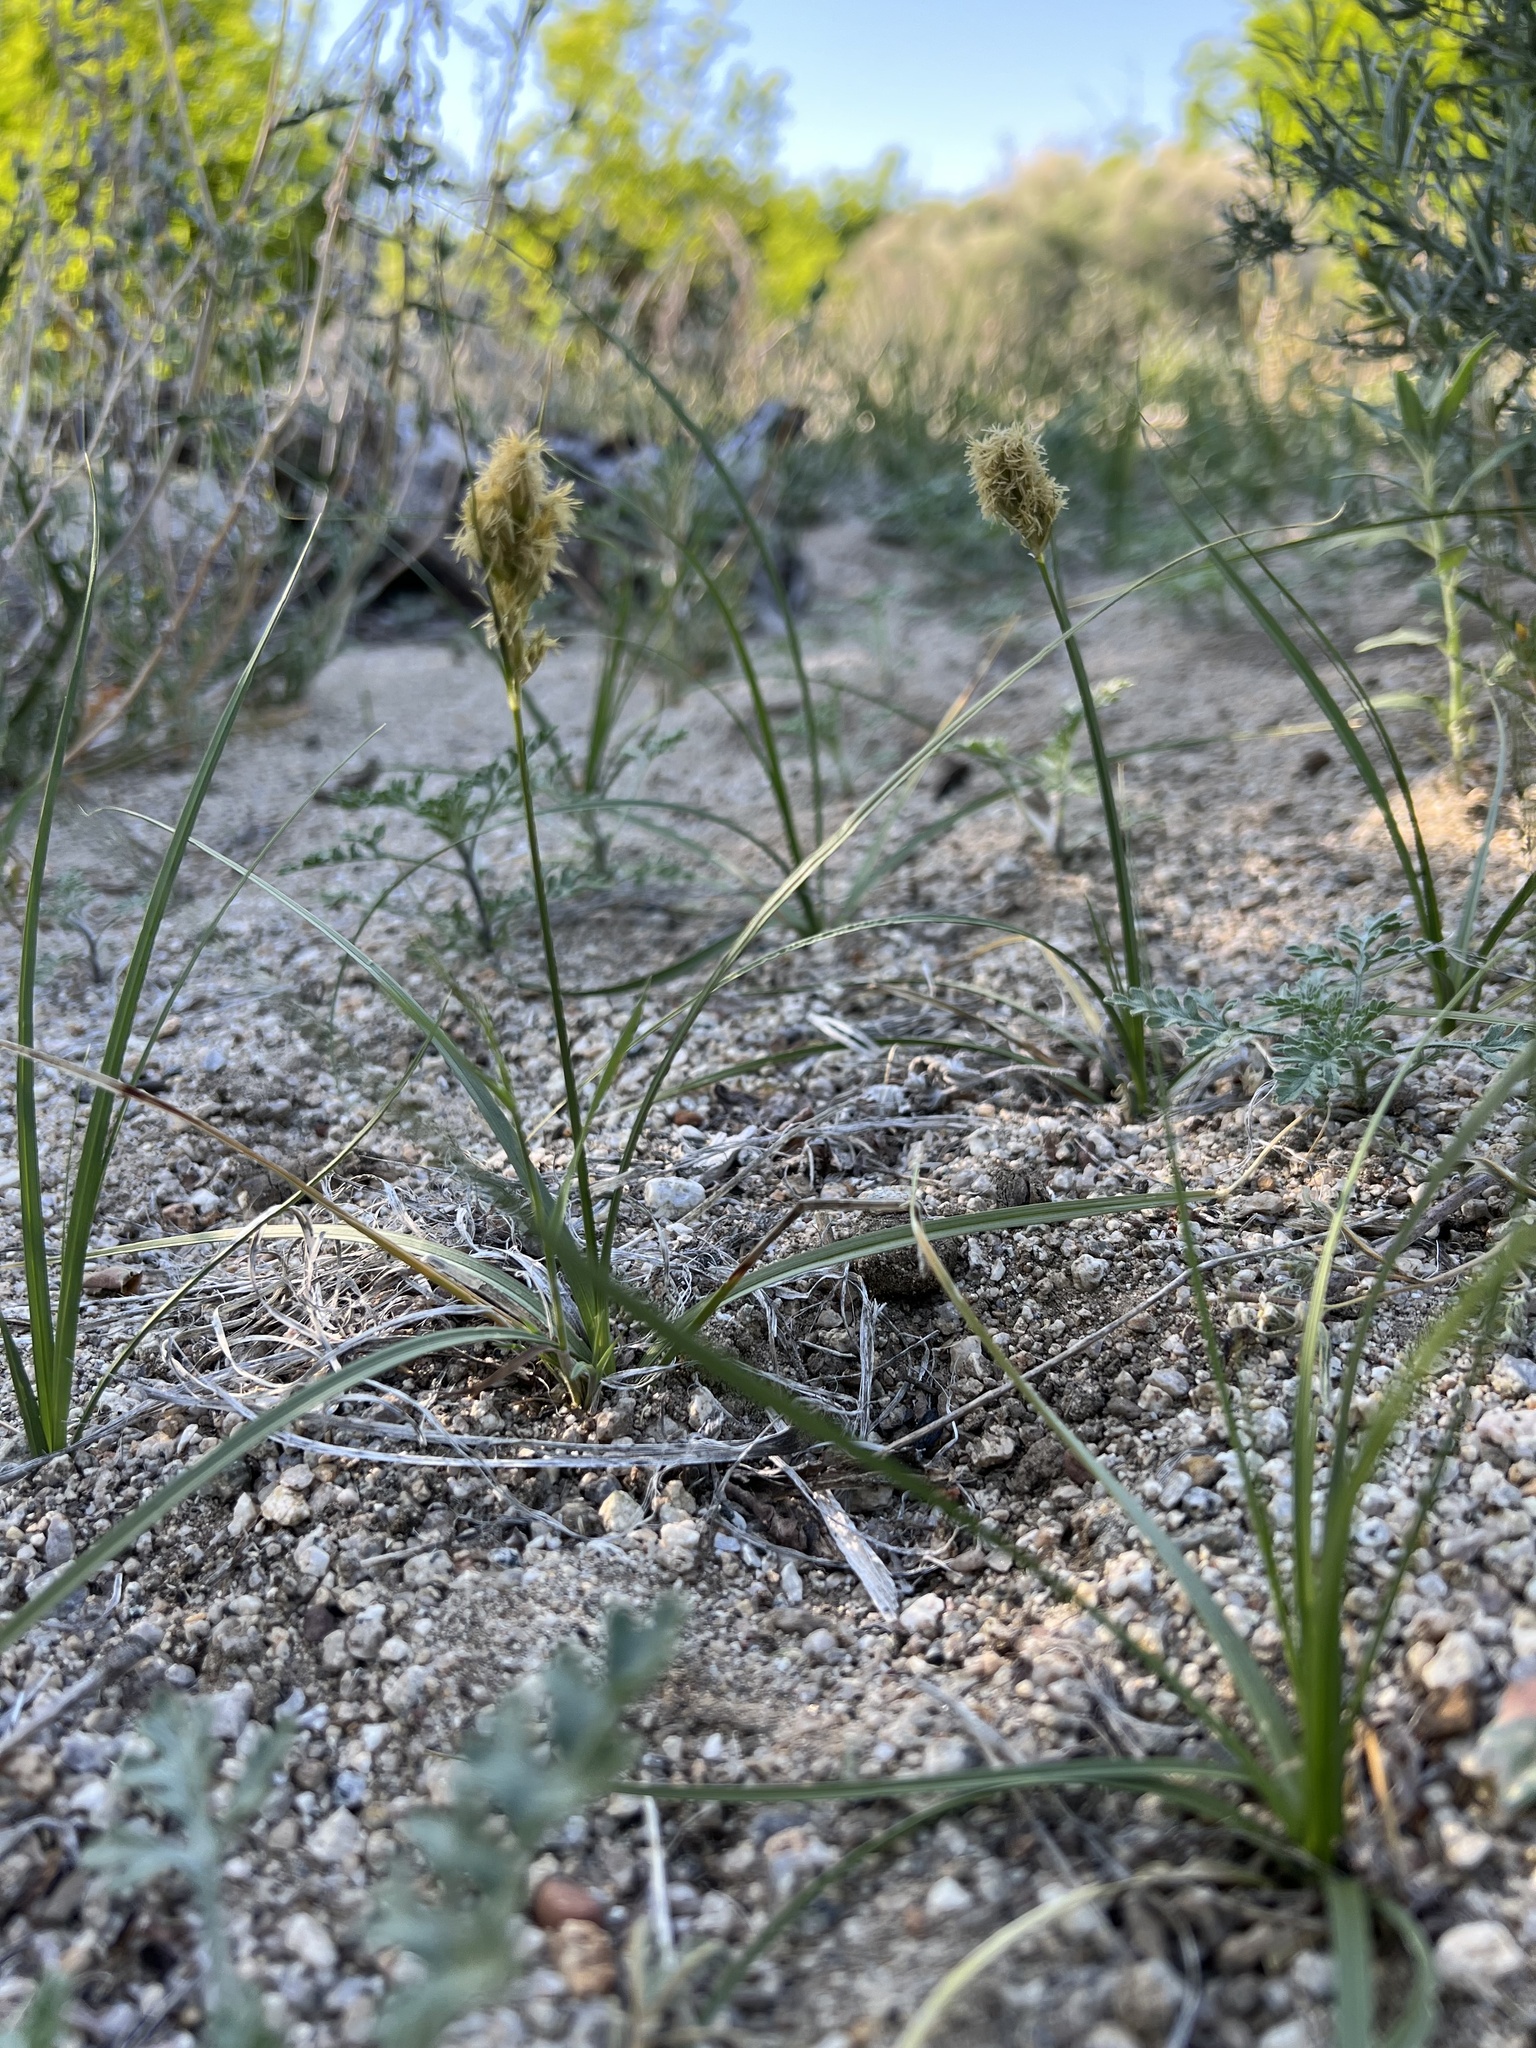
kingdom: Plantae
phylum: Tracheophyta
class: Liliopsida
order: Poales
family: Cyperaceae
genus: Carex
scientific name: Carex douglasii
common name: Douglas' sedge
